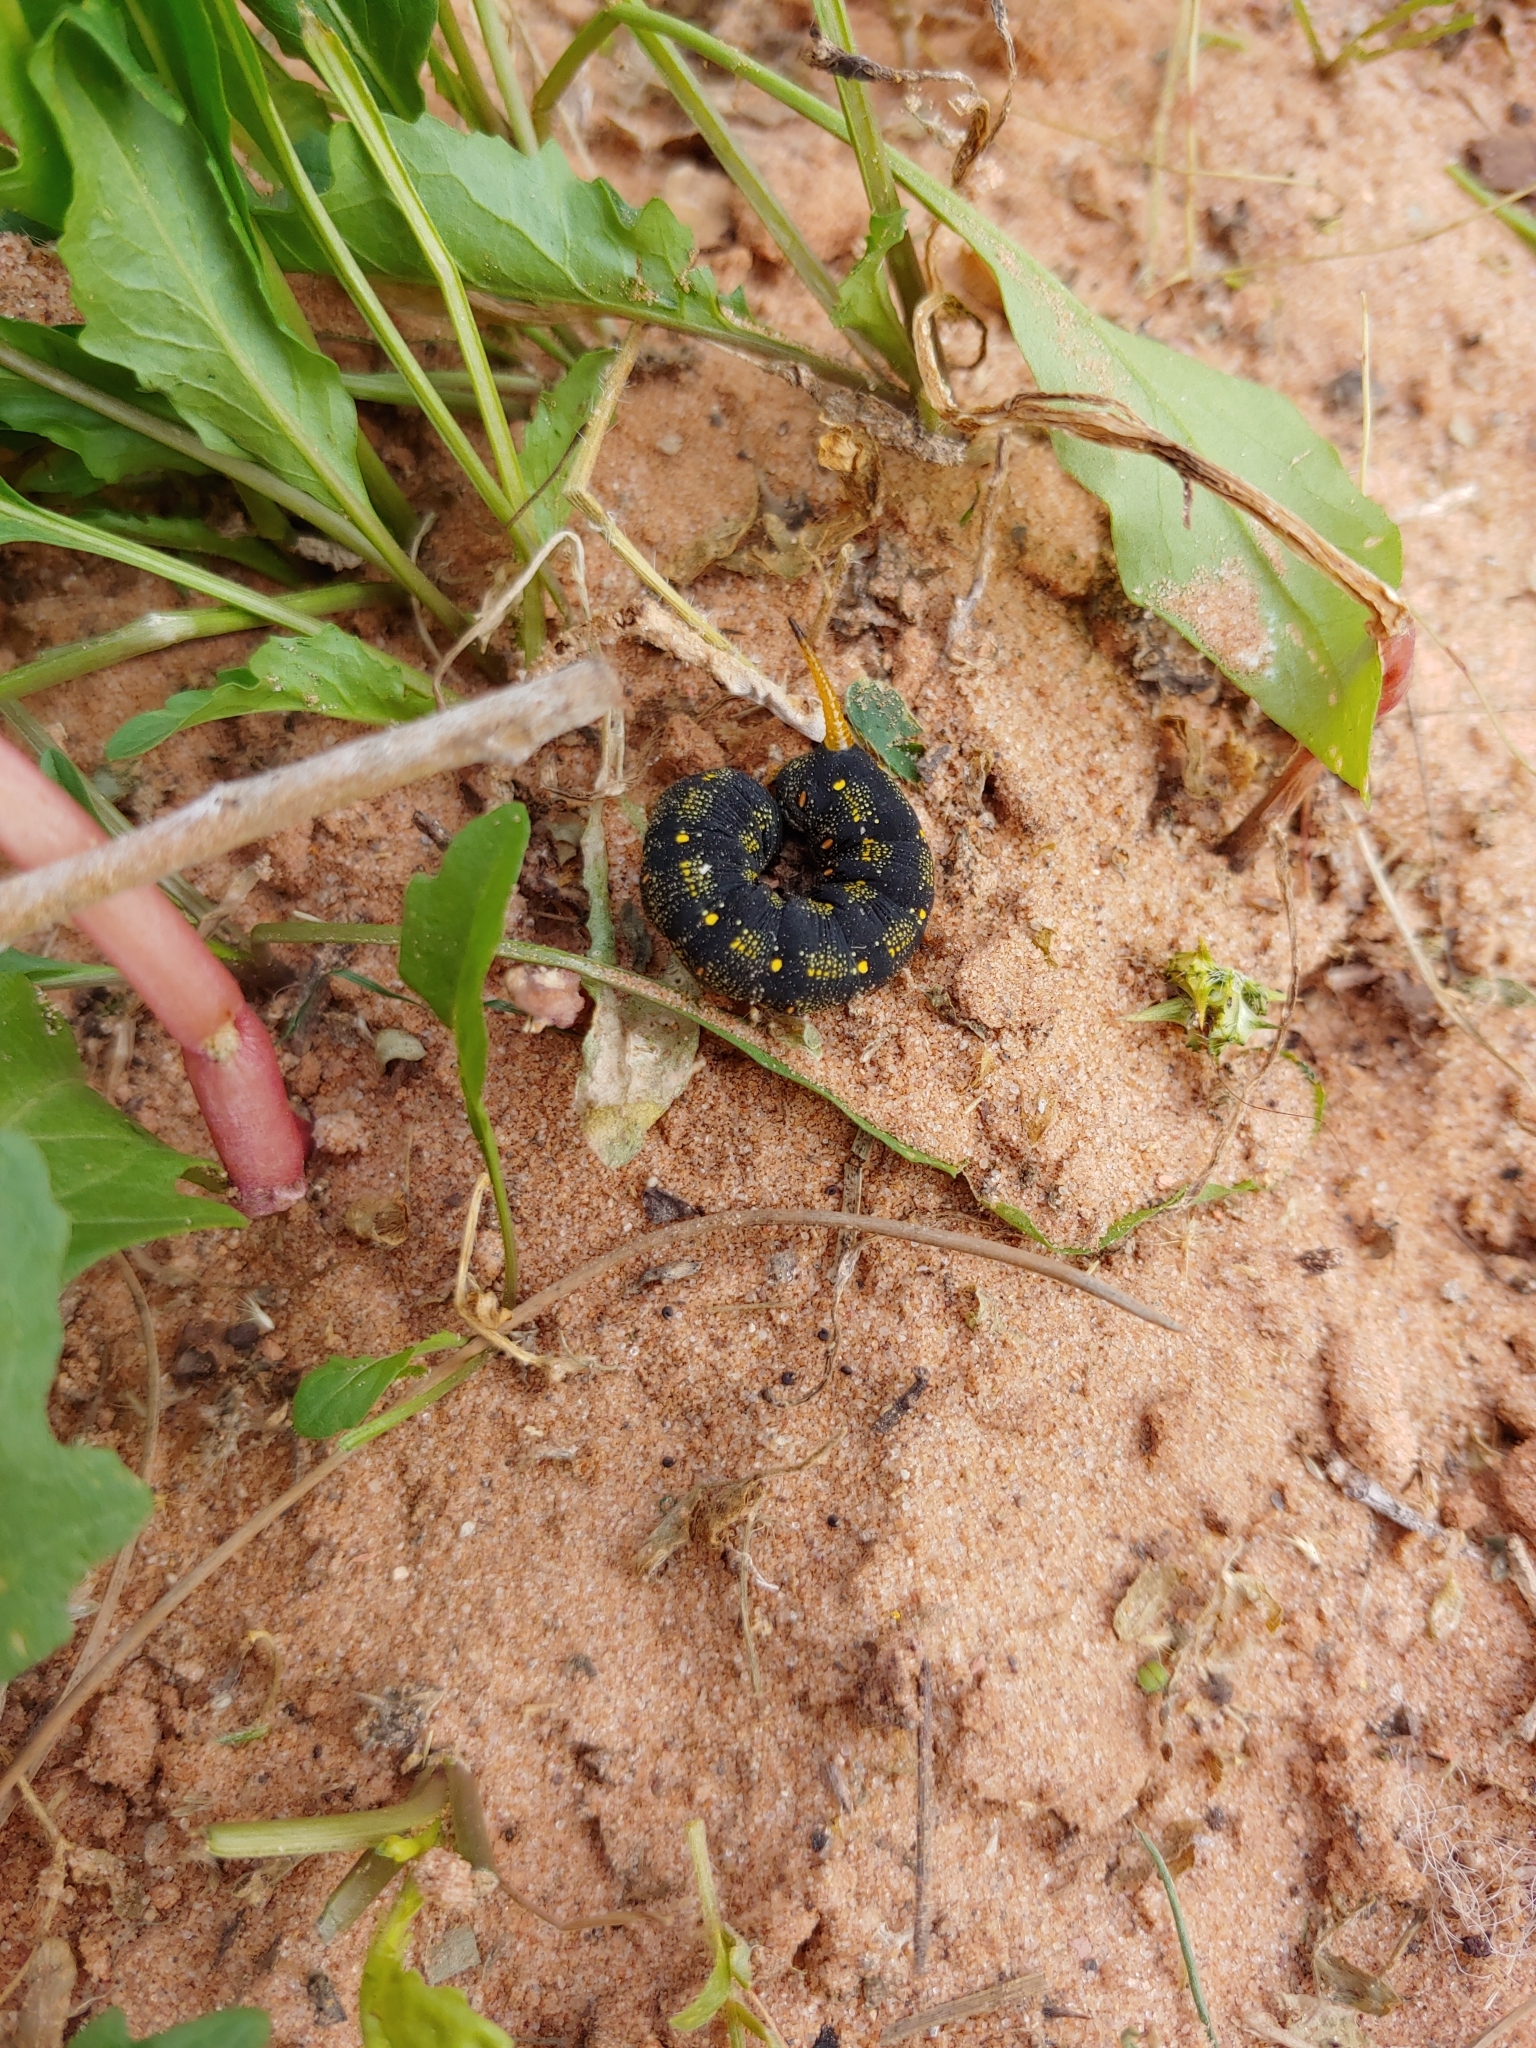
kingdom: Animalia
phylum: Arthropoda
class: Insecta
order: Lepidoptera
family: Sphingidae
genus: Hyles
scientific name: Hyles lineata
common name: White-lined sphinx
